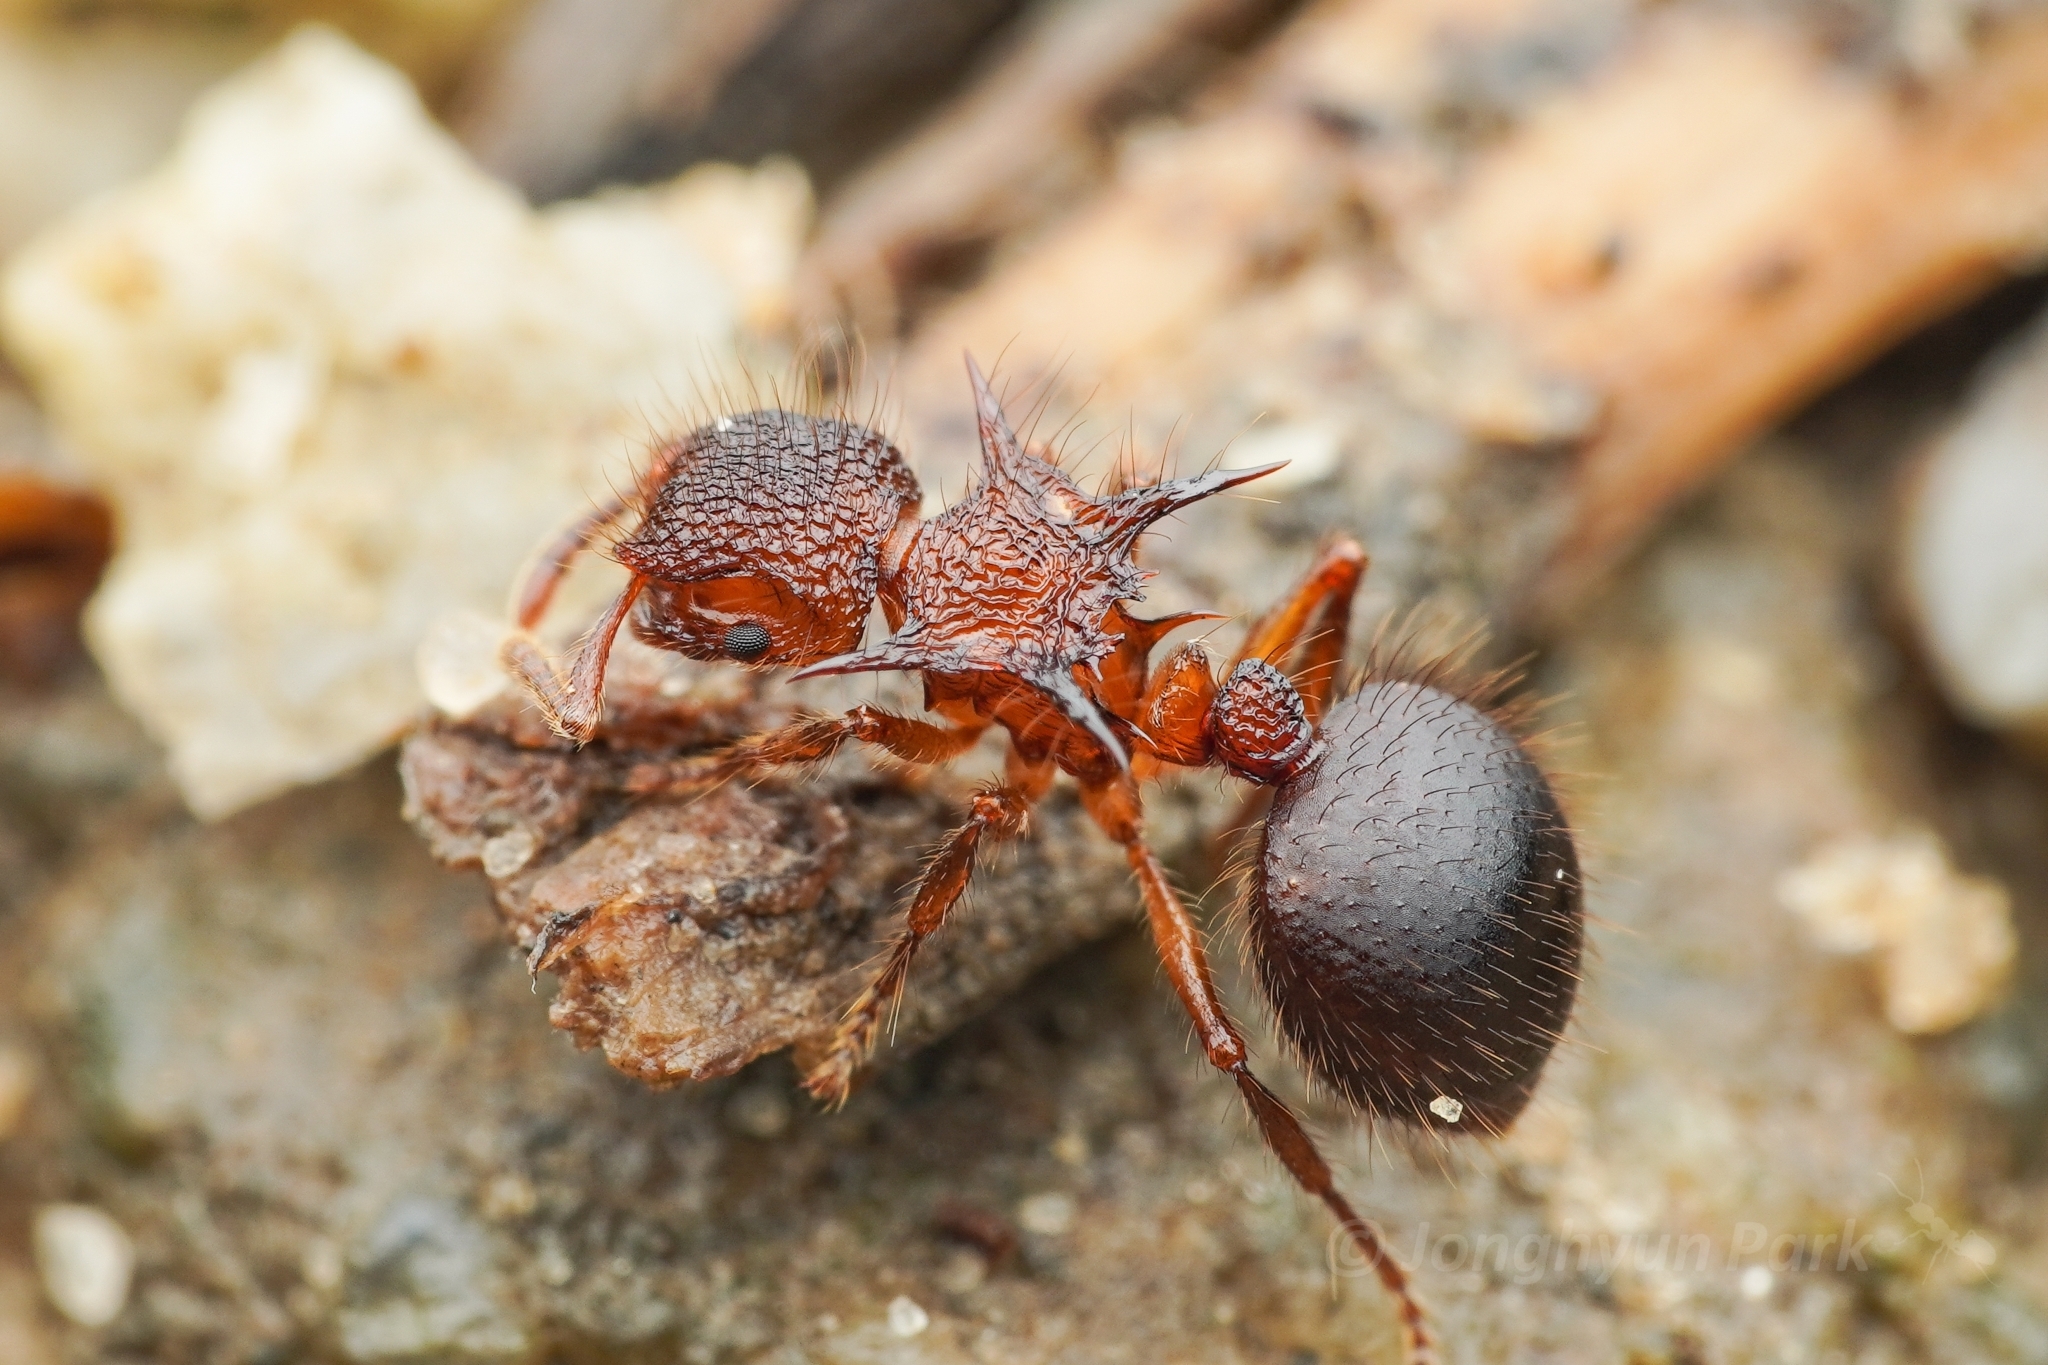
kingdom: Animalia
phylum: Arthropoda
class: Insecta
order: Hymenoptera
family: Formicidae
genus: Meranoplus
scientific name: Meranoplus mucronatus
